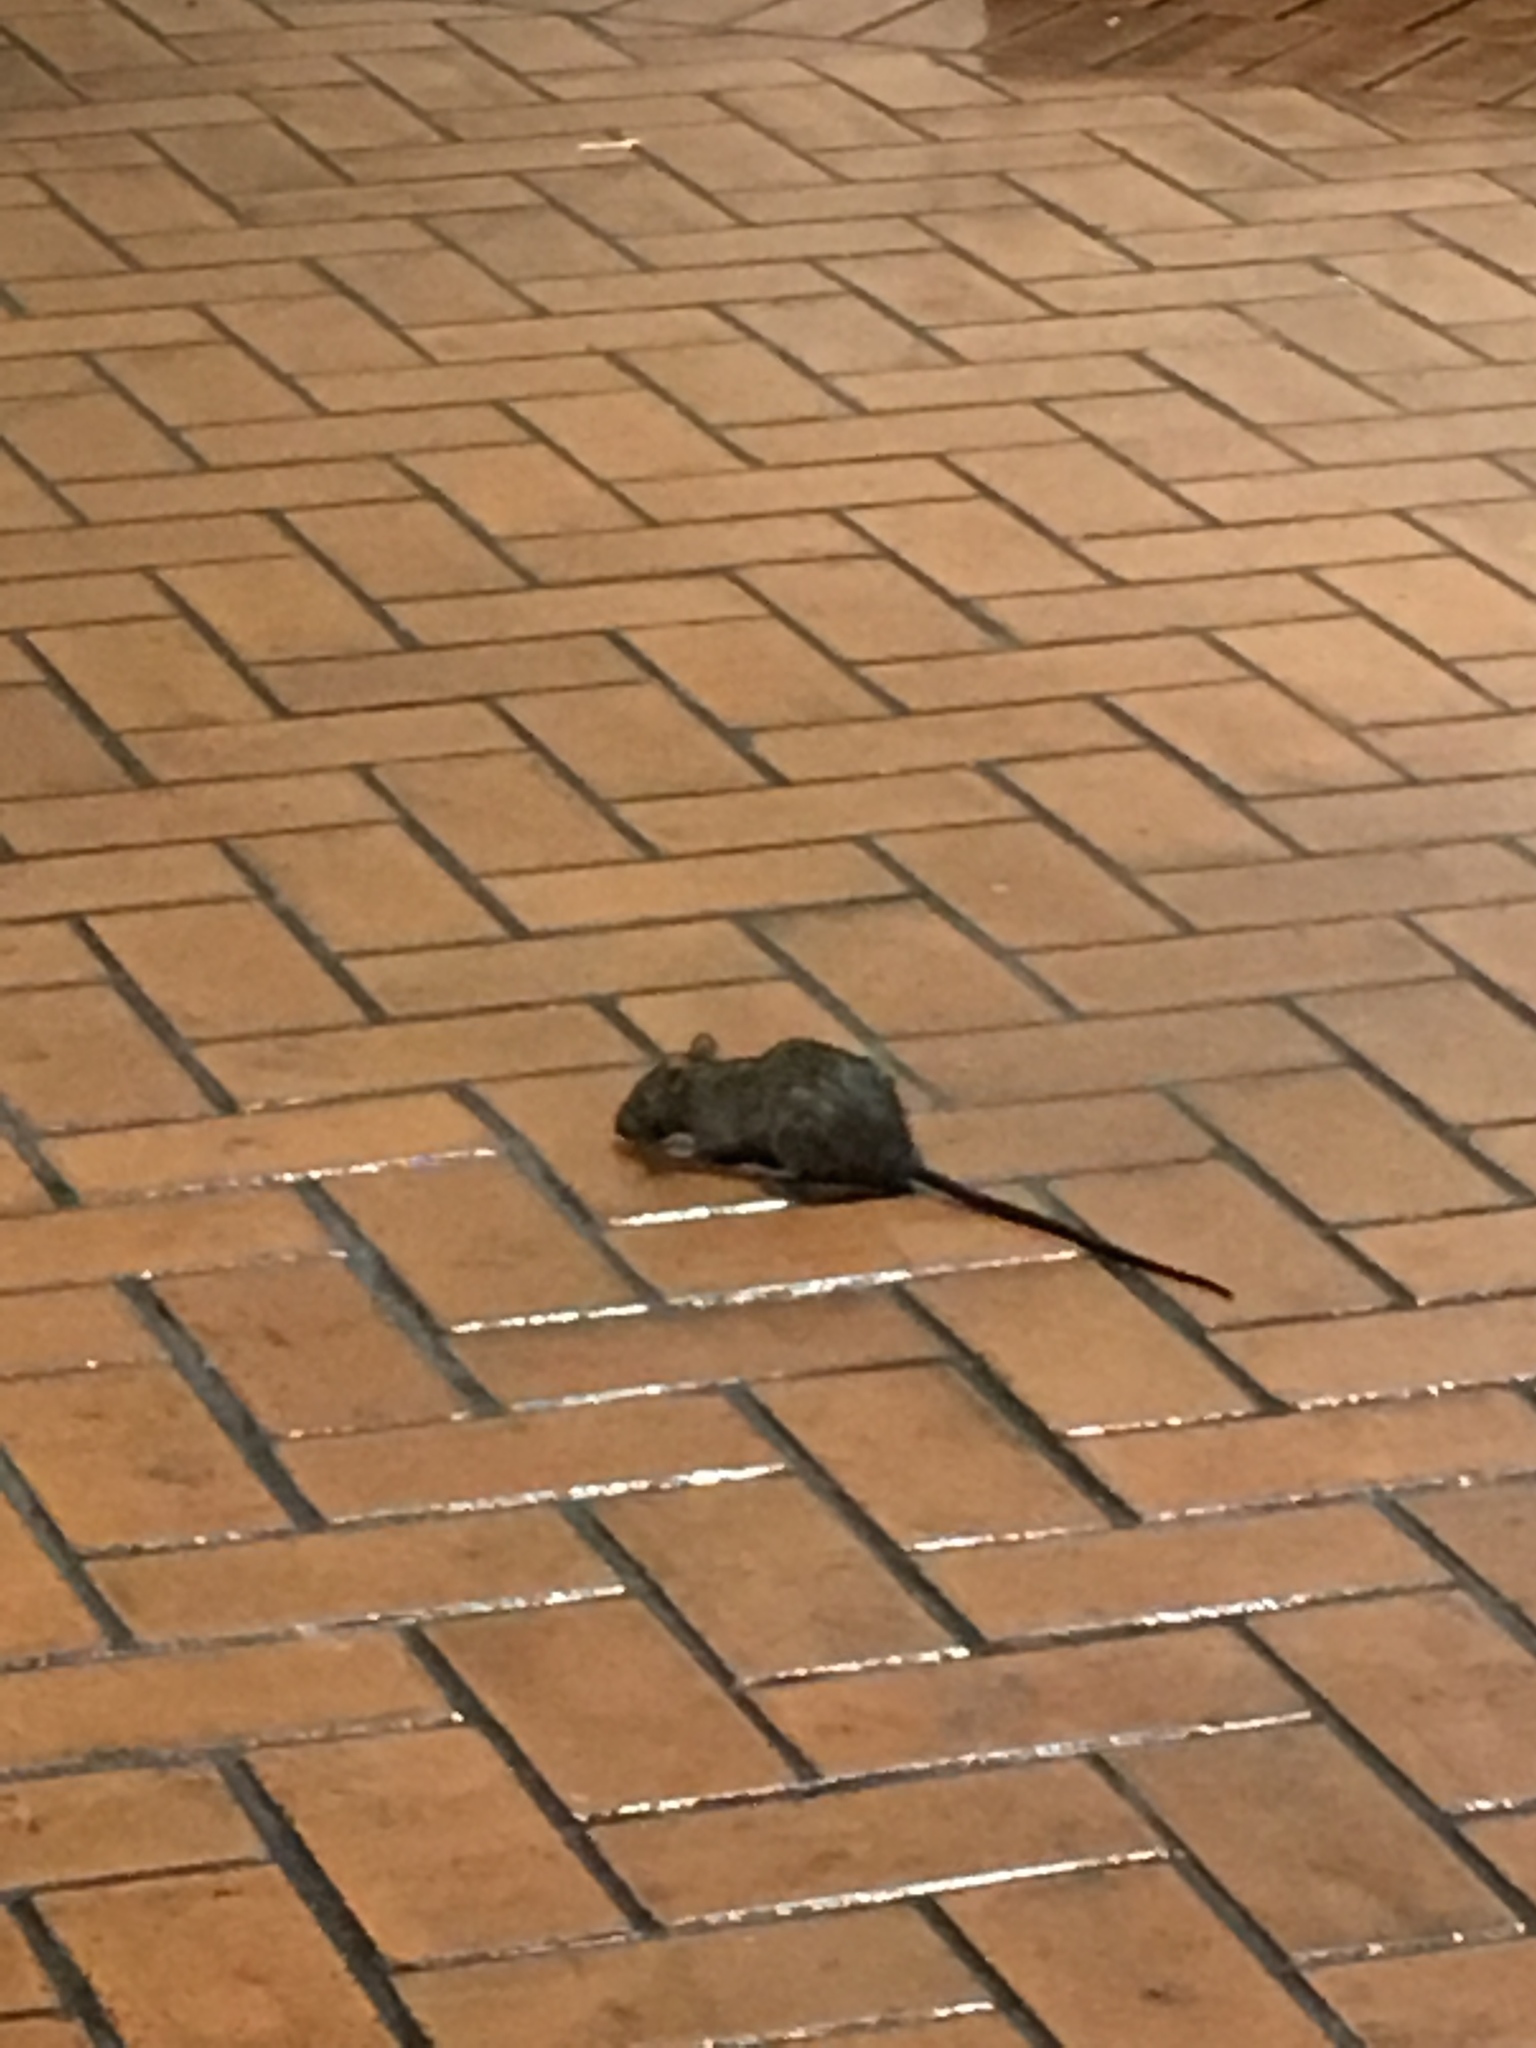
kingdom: Animalia
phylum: Chordata
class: Mammalia
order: Rodentia
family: Muridae
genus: Rattus
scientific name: Rattus rattus
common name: Black rat
